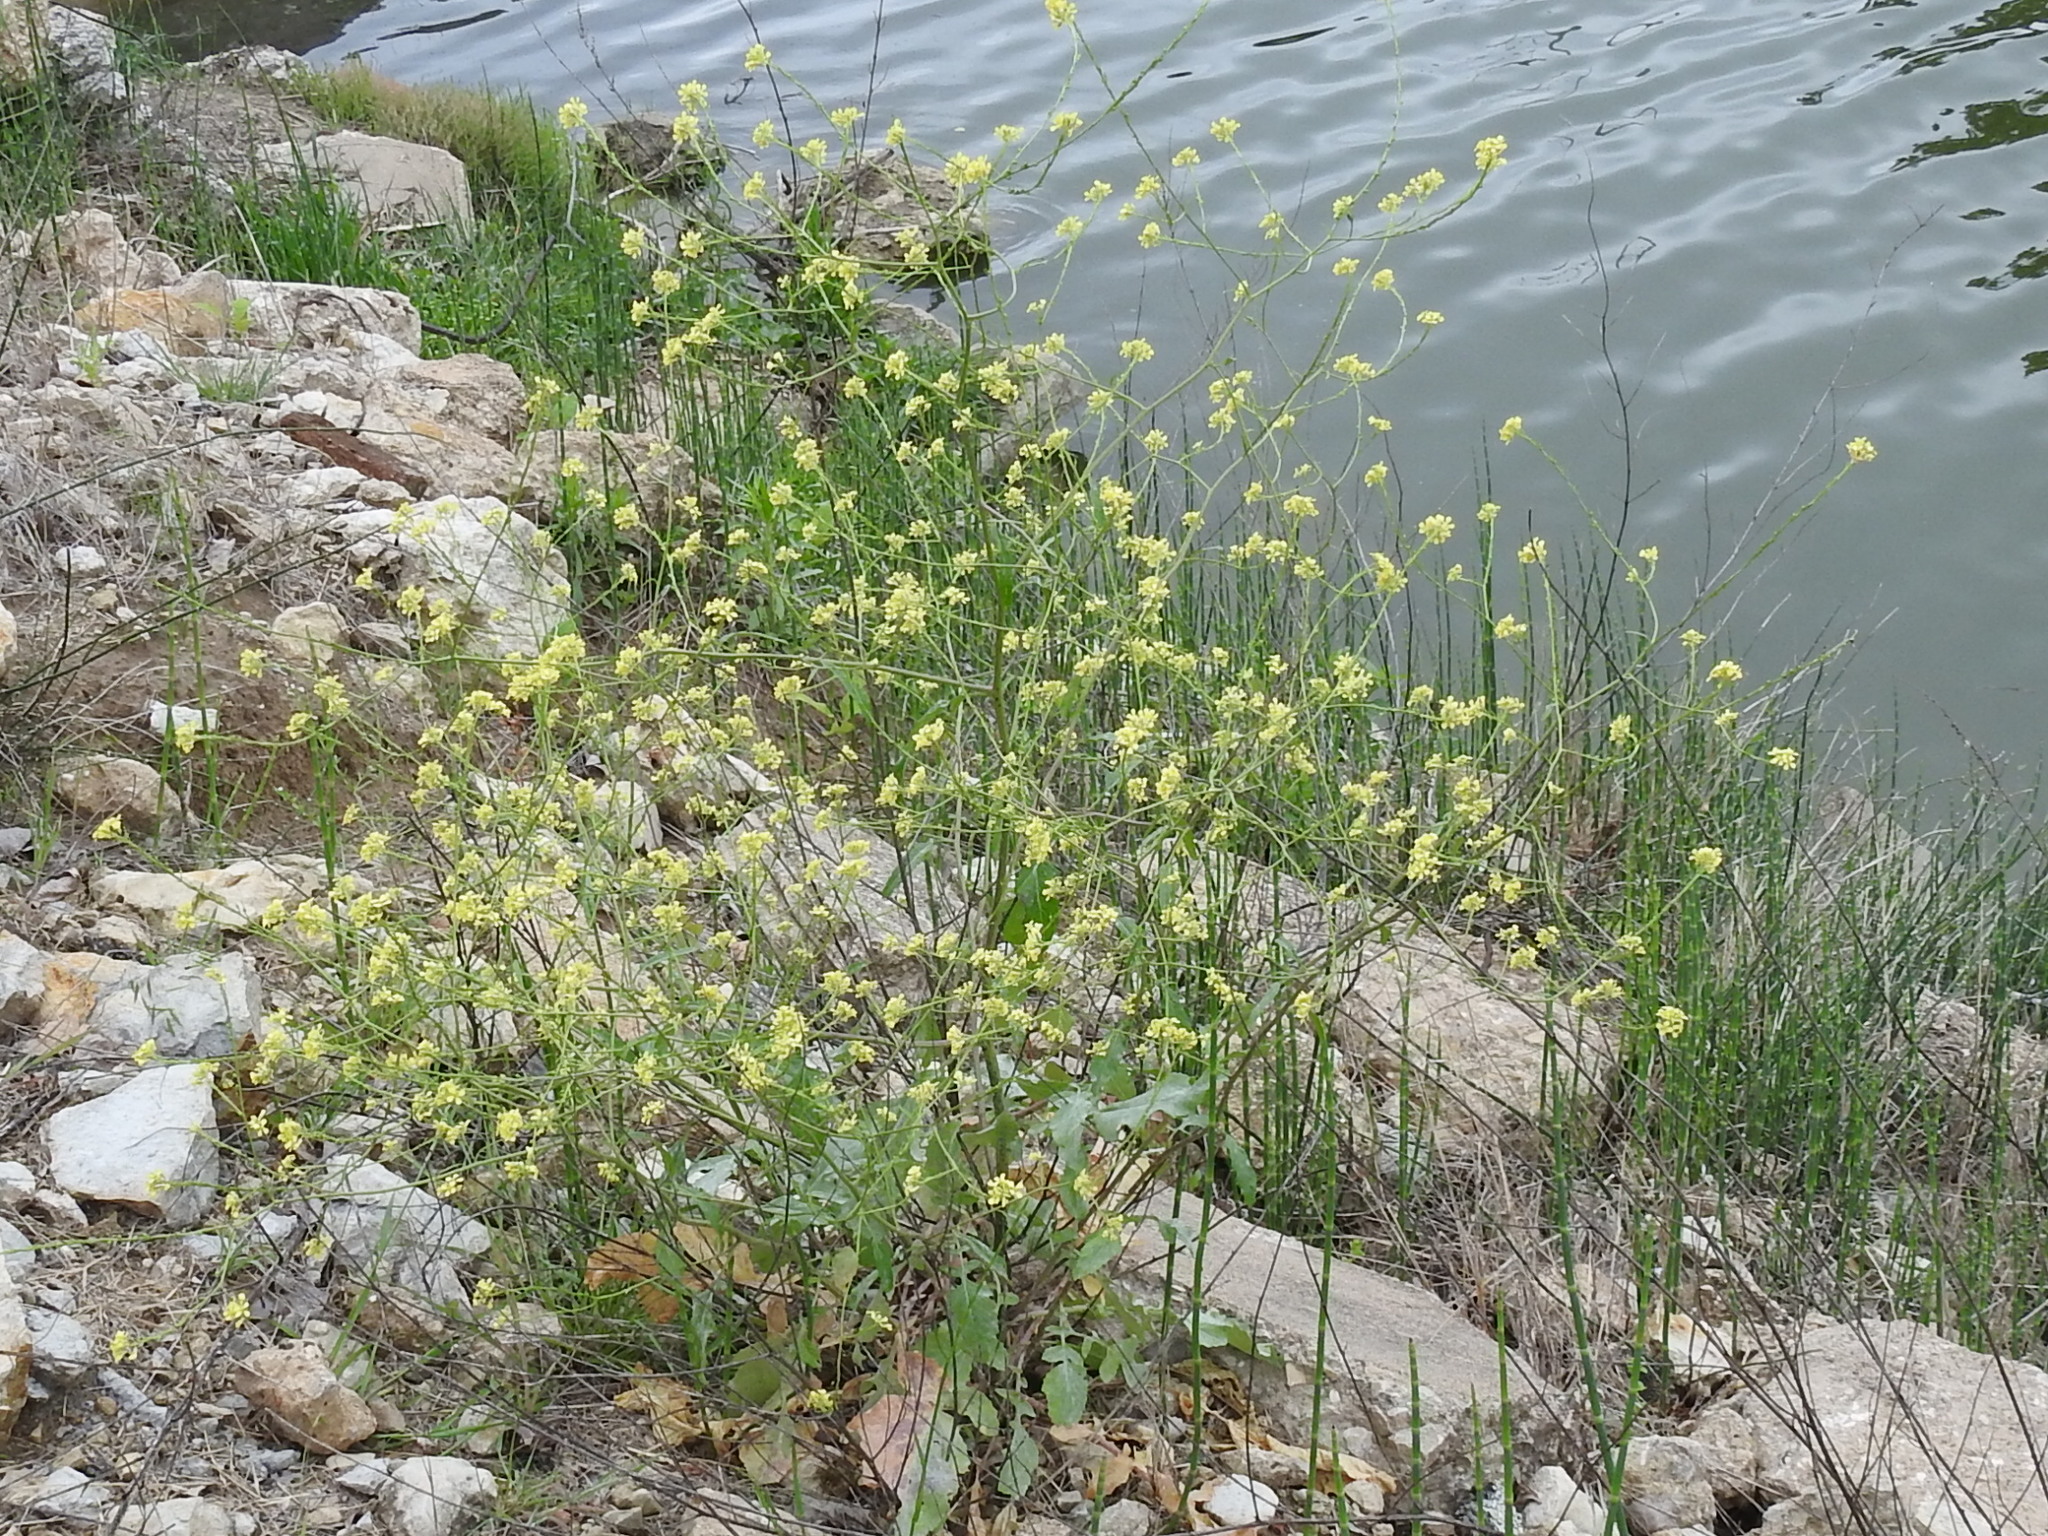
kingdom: Plantae
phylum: Tracheophyta
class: Magnoliopsida
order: Brassicales
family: Brassicaceae
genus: Rapistrum
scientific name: Rapistrum rugosum
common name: Annual bastardcabbage
